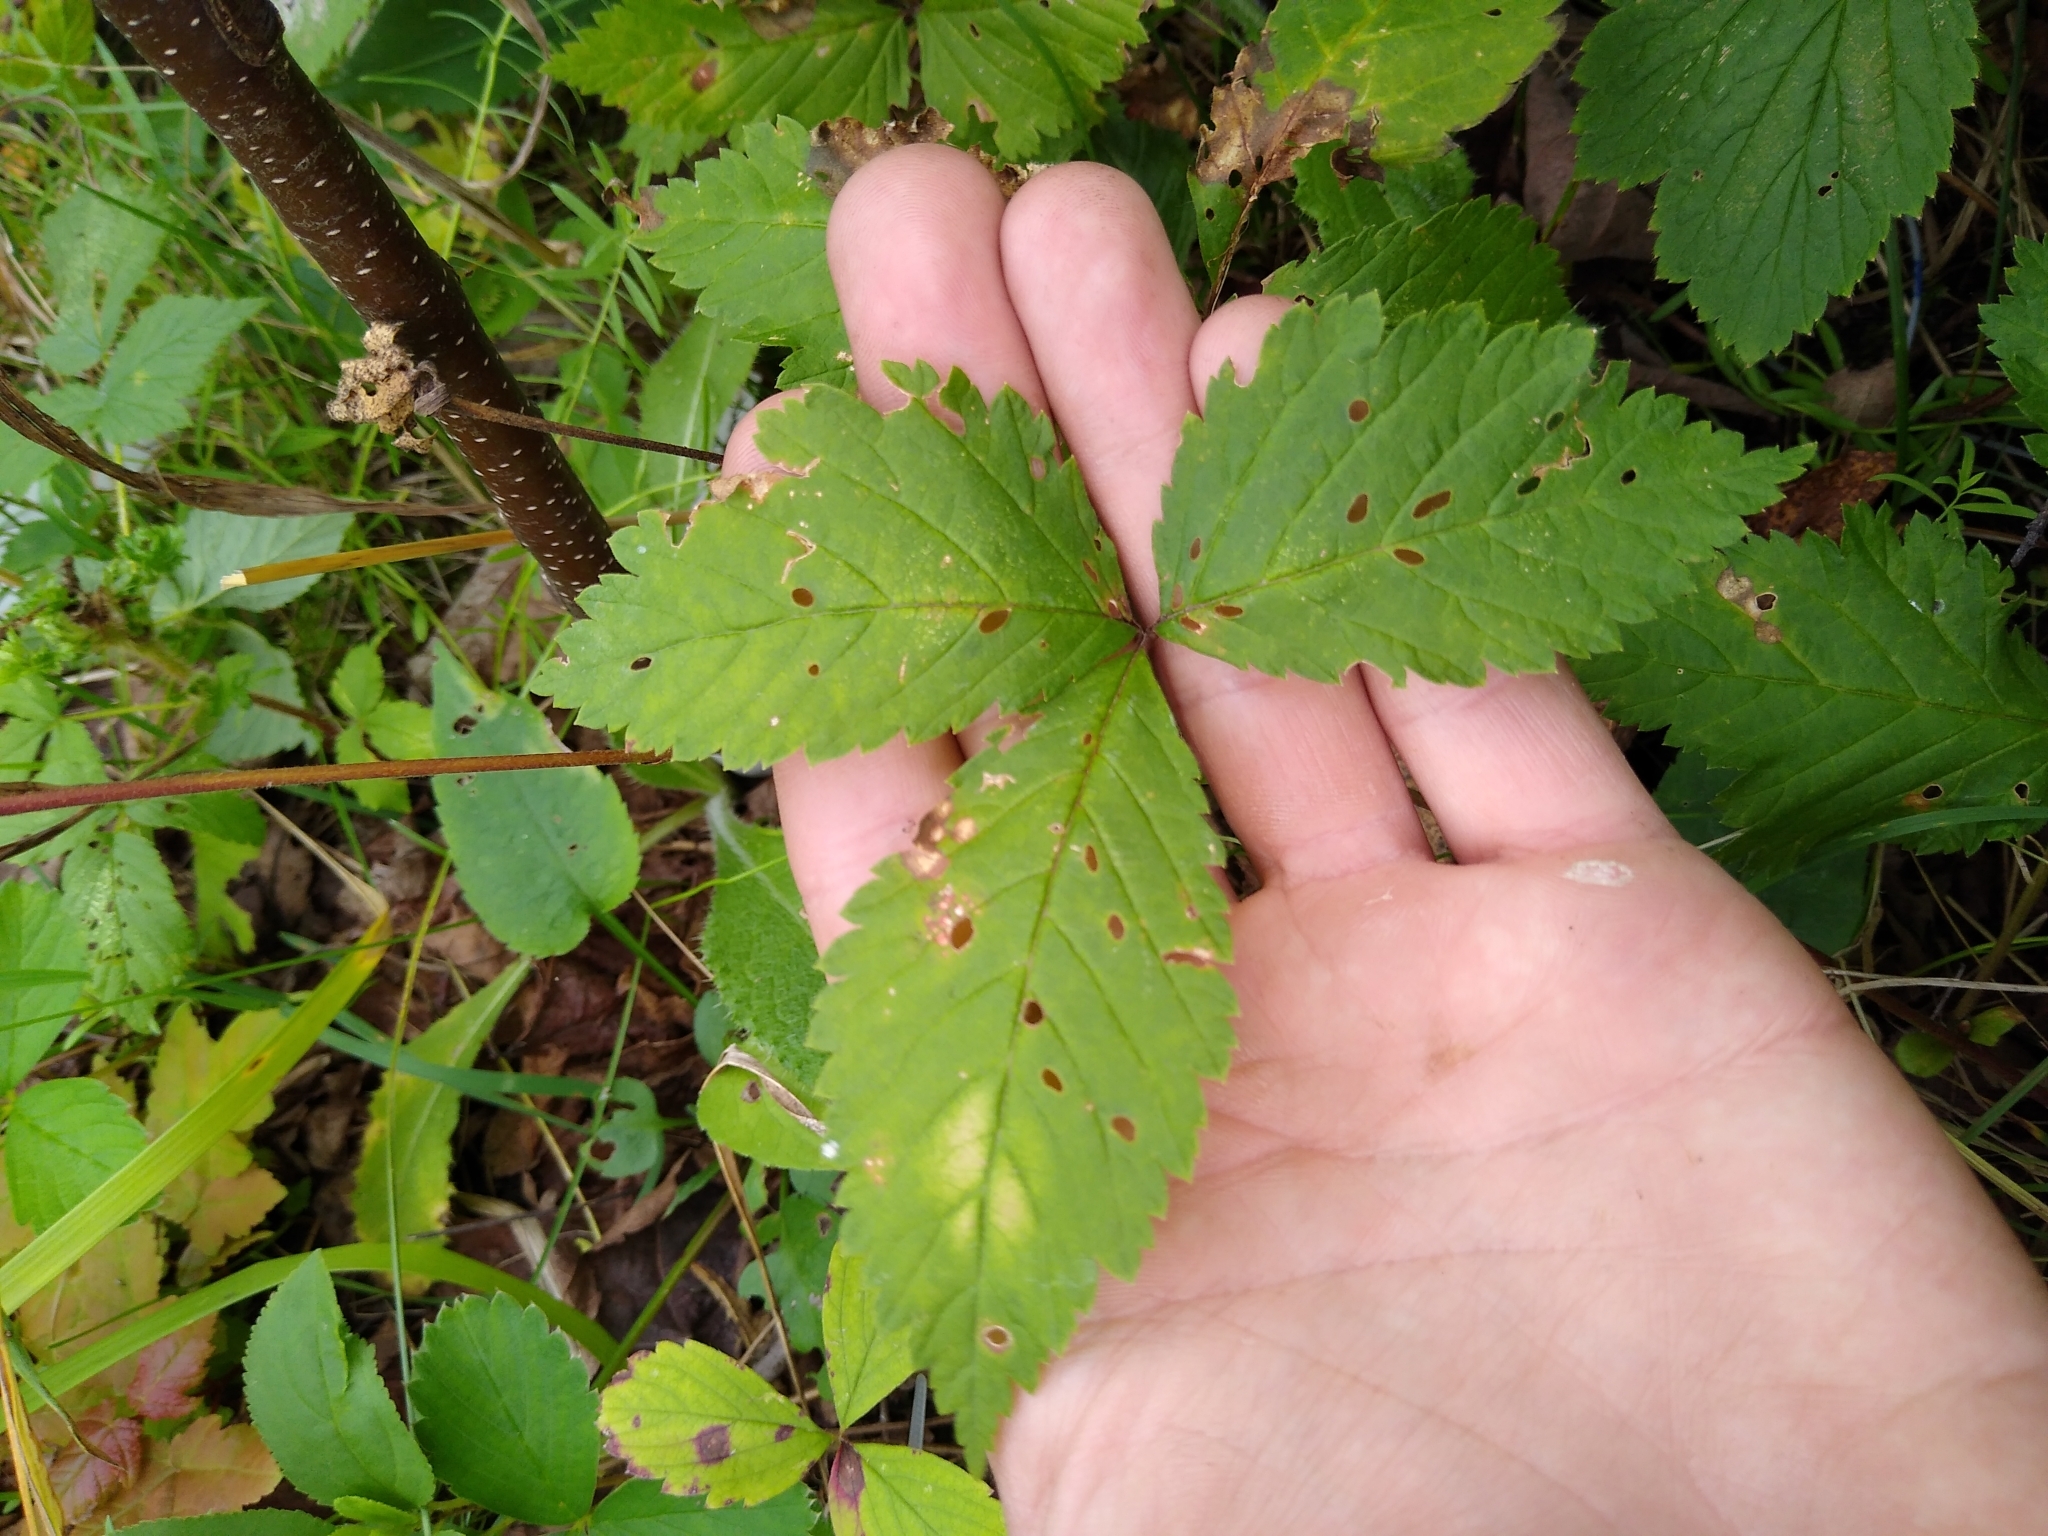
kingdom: Plantae
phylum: Tracheophyta
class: Magnoliopsida
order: Rosales
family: Rosaceae
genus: Rubus
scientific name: Rubus pubescens
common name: Dwarf raspberry
